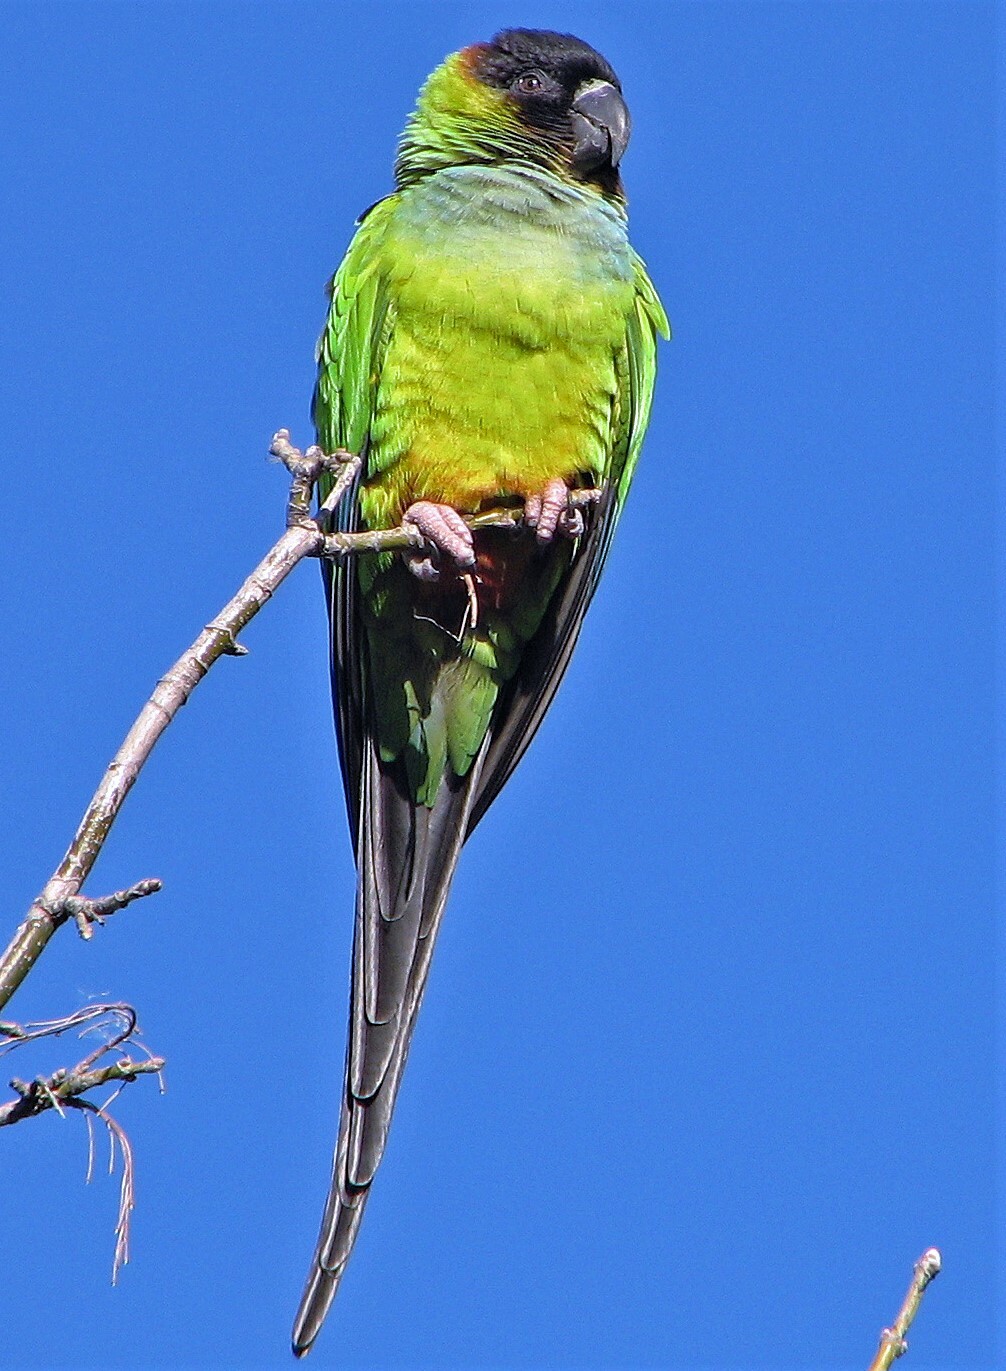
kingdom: Animalia
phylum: Chordata
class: Aves
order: Psittaciformes
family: Psittacidae
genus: Nandayus
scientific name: Nandayus nenday
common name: Nanday parakeet
